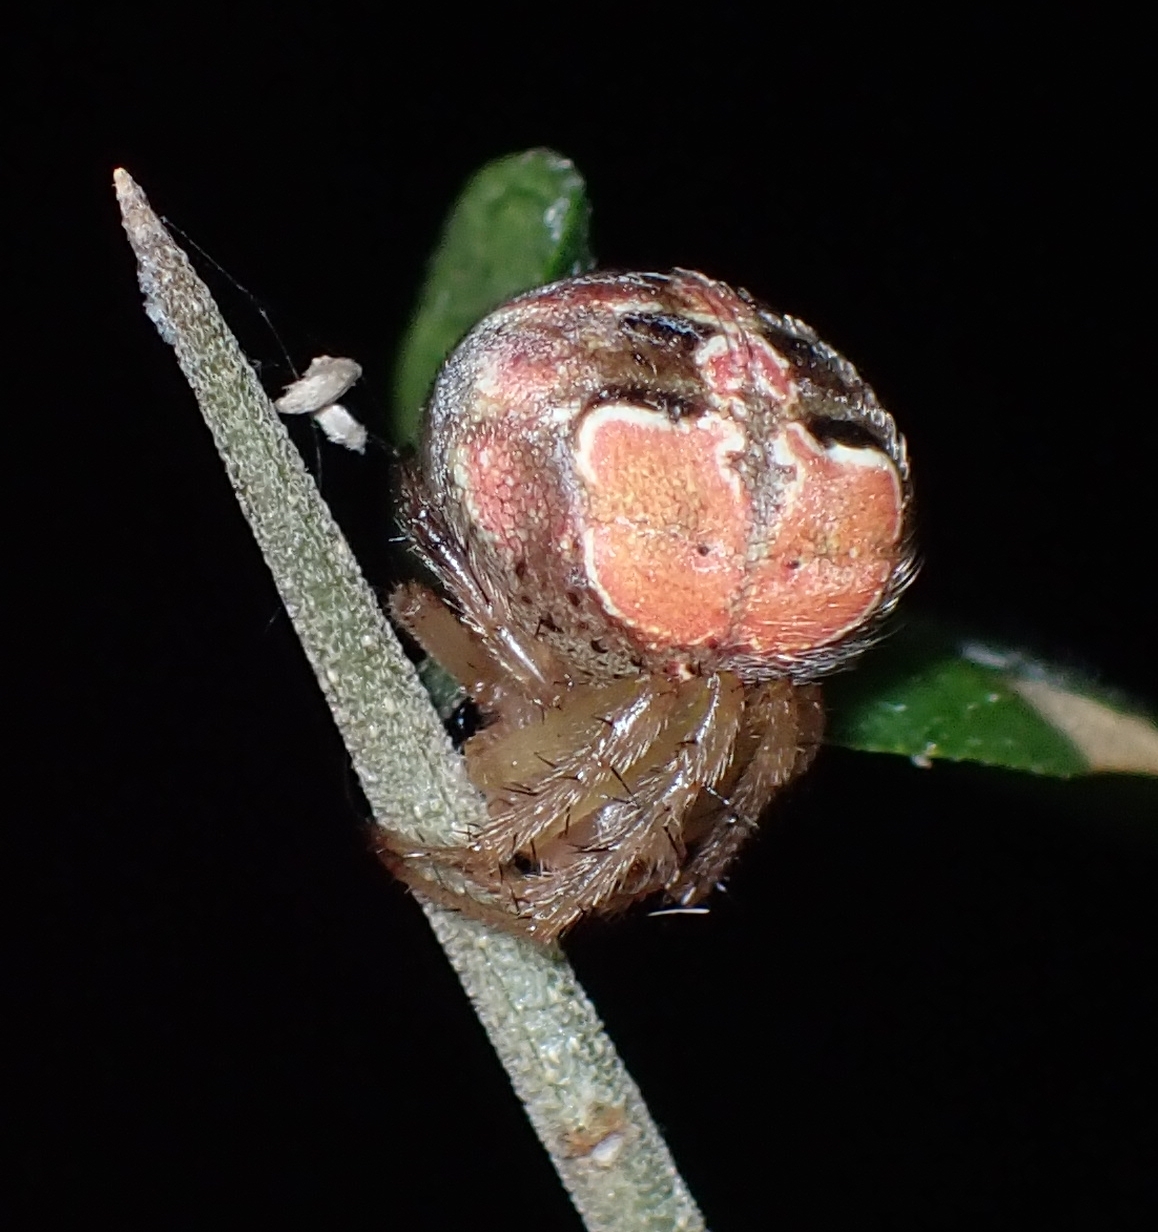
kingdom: Animalia
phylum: Arthropoda
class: Arachnida
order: Araneae
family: Araneidae
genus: Araneus
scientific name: Araneus pegnia
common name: Orb weavers
